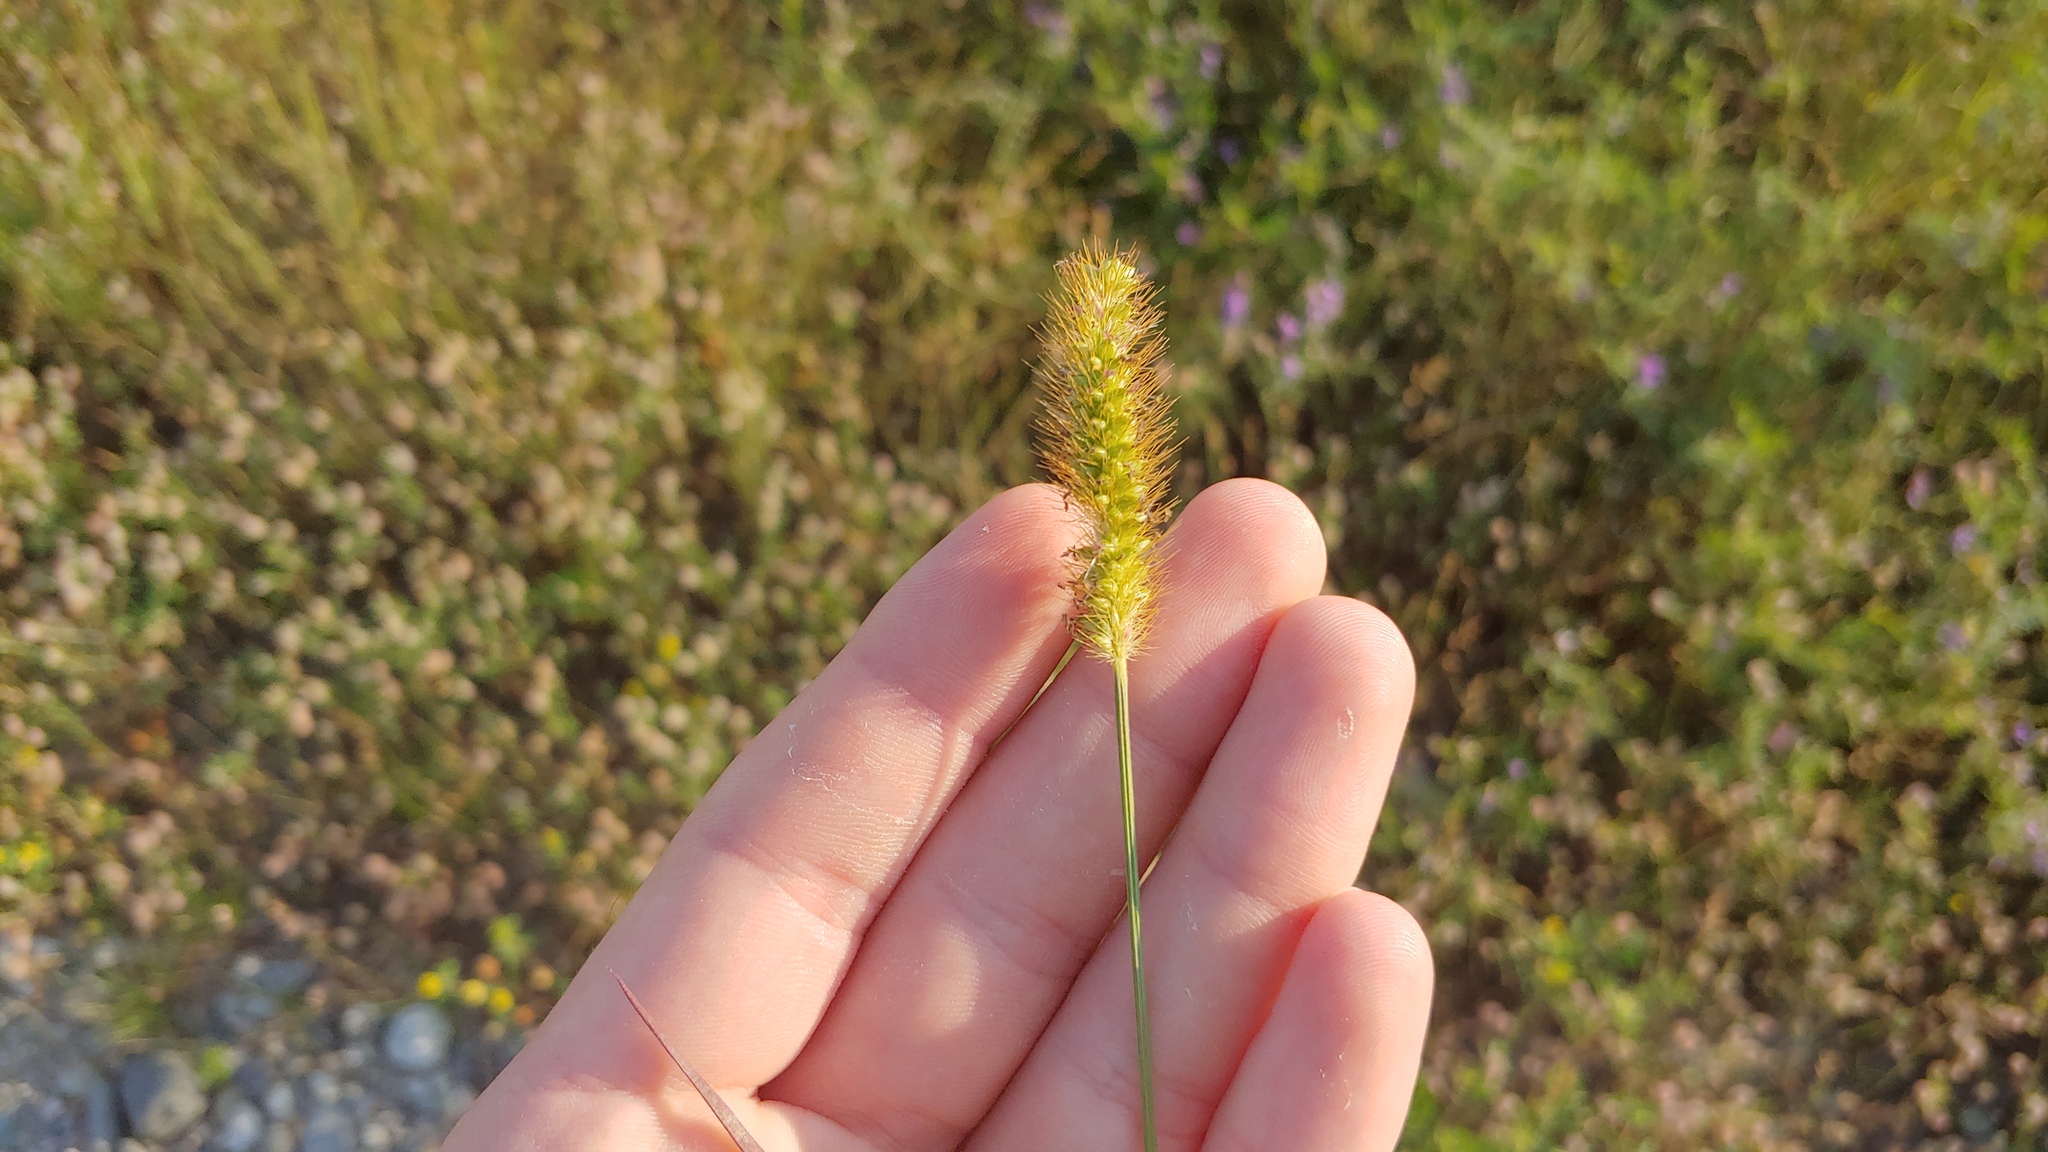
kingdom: Plantae
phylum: Tracheophyta
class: Liliopsida
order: Poales
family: Poaceae
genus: Setaria
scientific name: Setaria pumila
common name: Yellow bristle-grass
